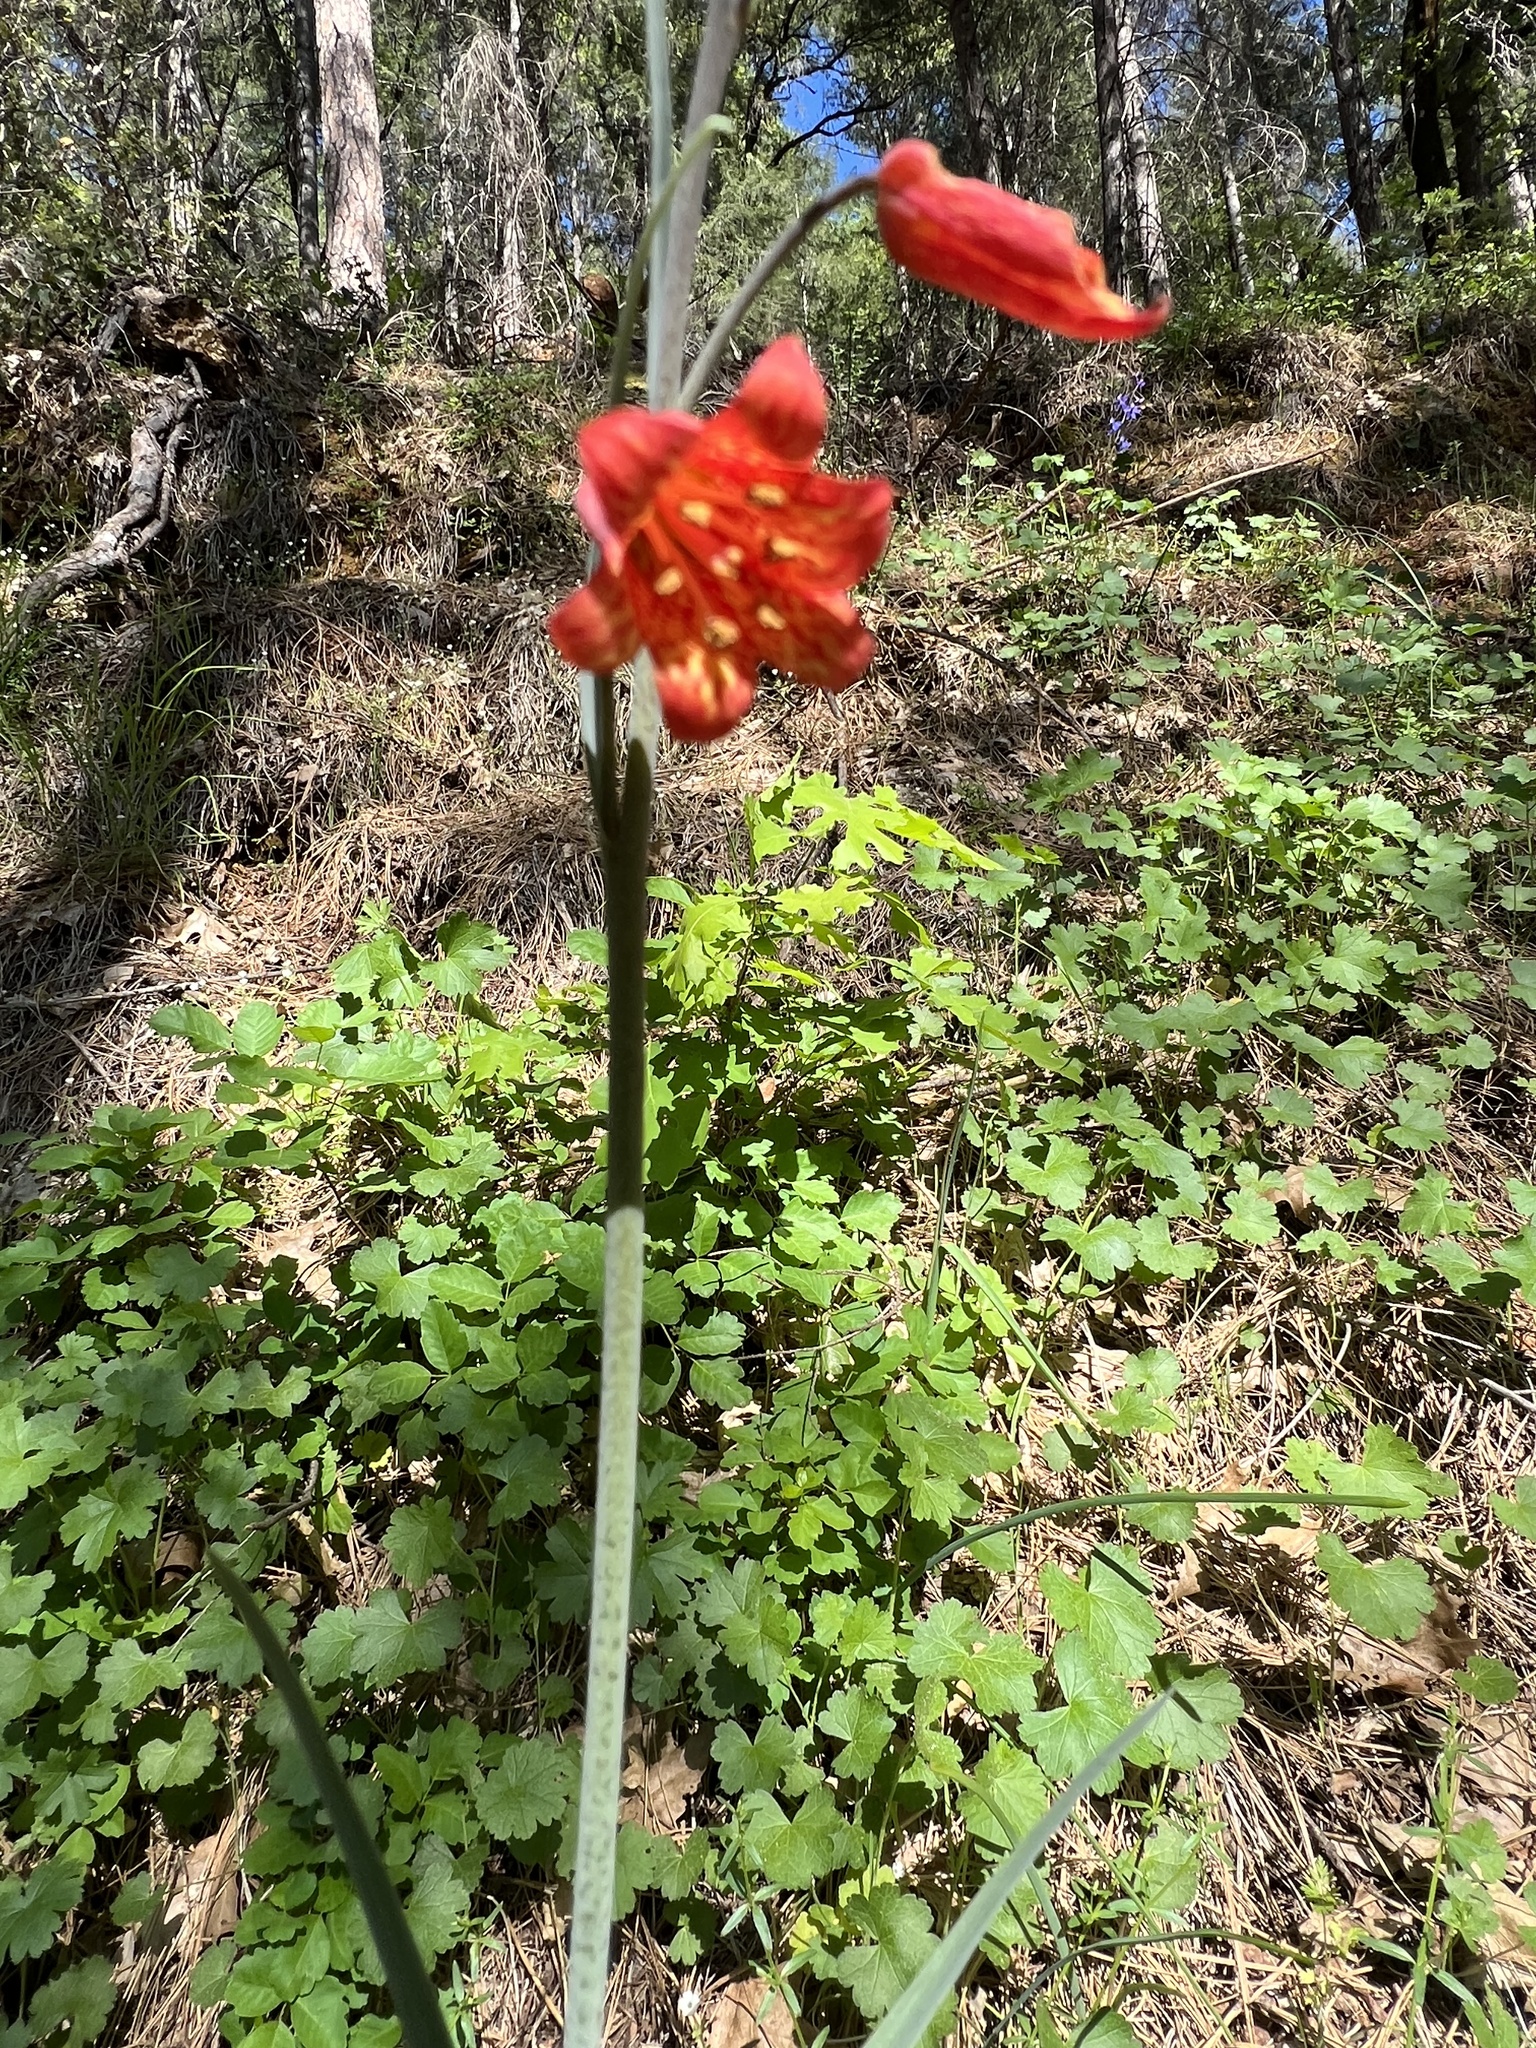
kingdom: Plantae
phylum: Tracheophyta
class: Liliopsida
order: Liliales
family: Liliaceae
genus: Fritillaria
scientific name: Fritillaria recurva
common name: Scarlet fritillary
